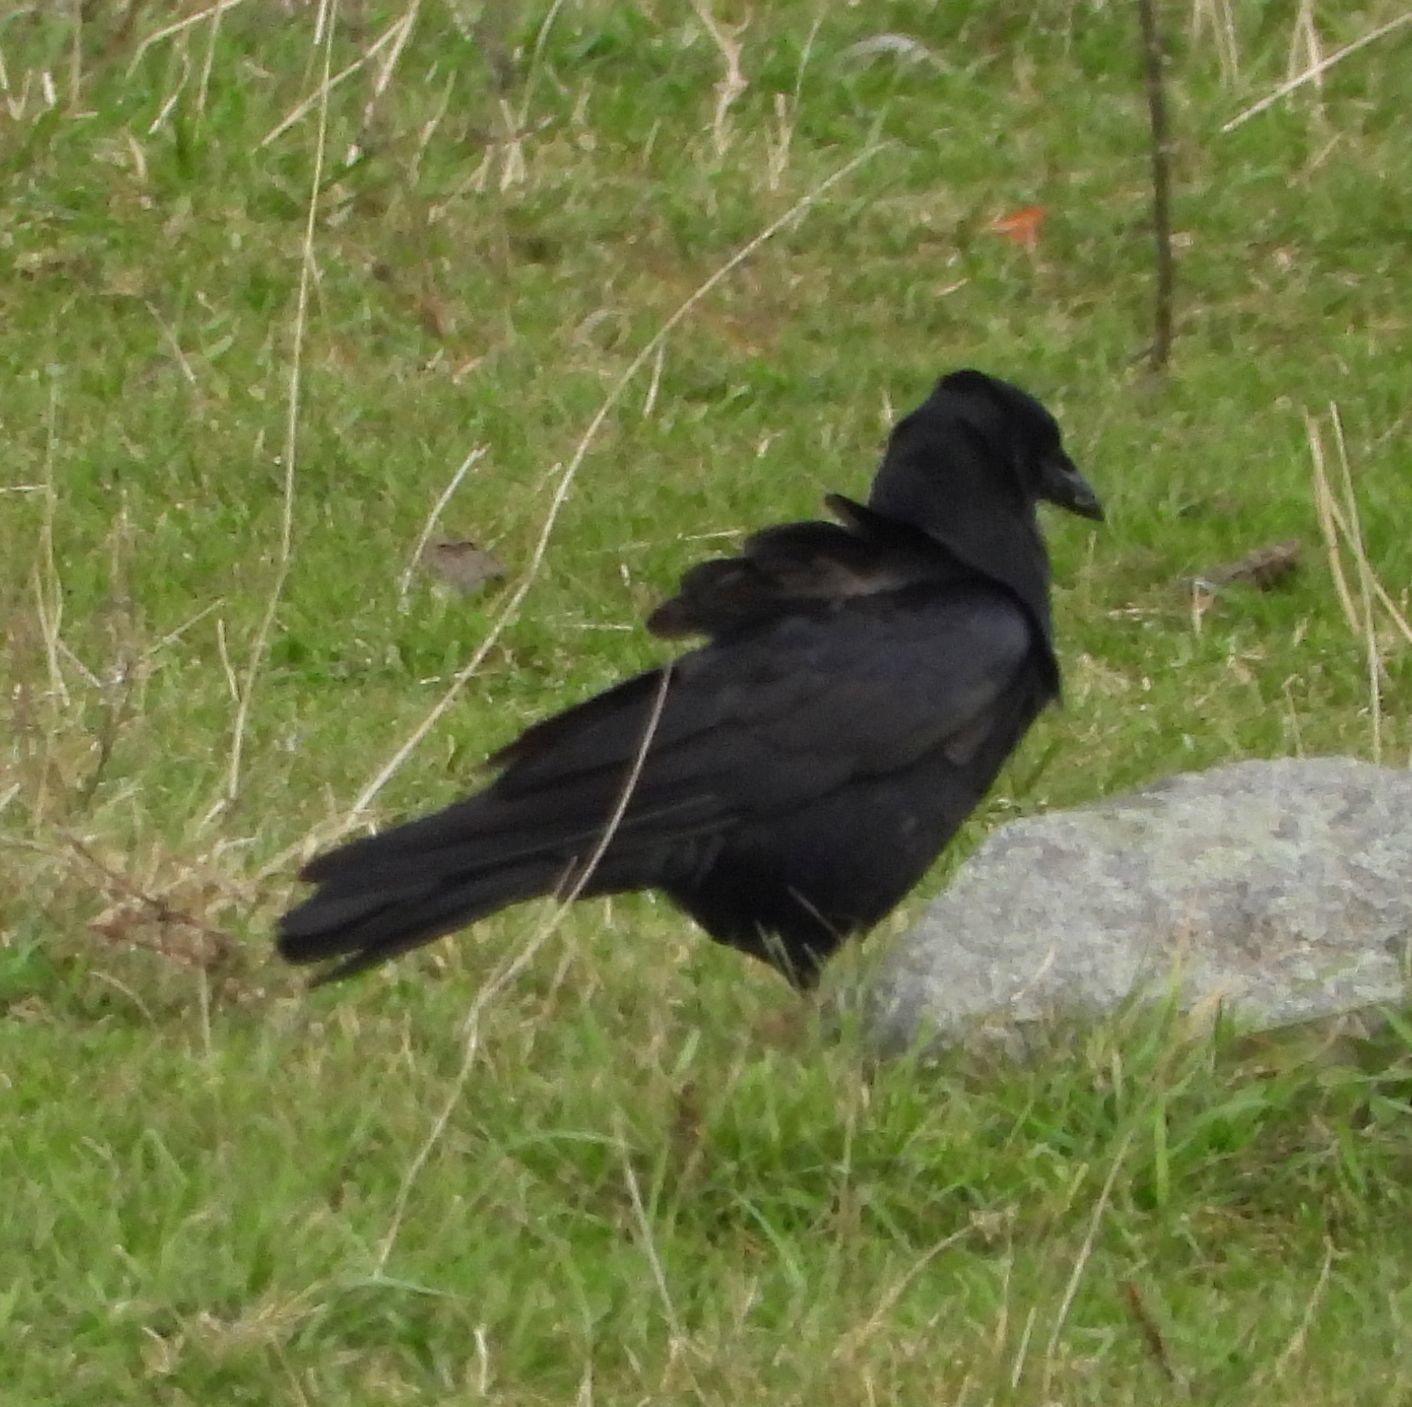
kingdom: Animalia
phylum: Chordata
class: Aves
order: Passeriformes
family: Corvidae
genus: Corvus
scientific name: Corvus brachyrhynchos
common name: American crow
